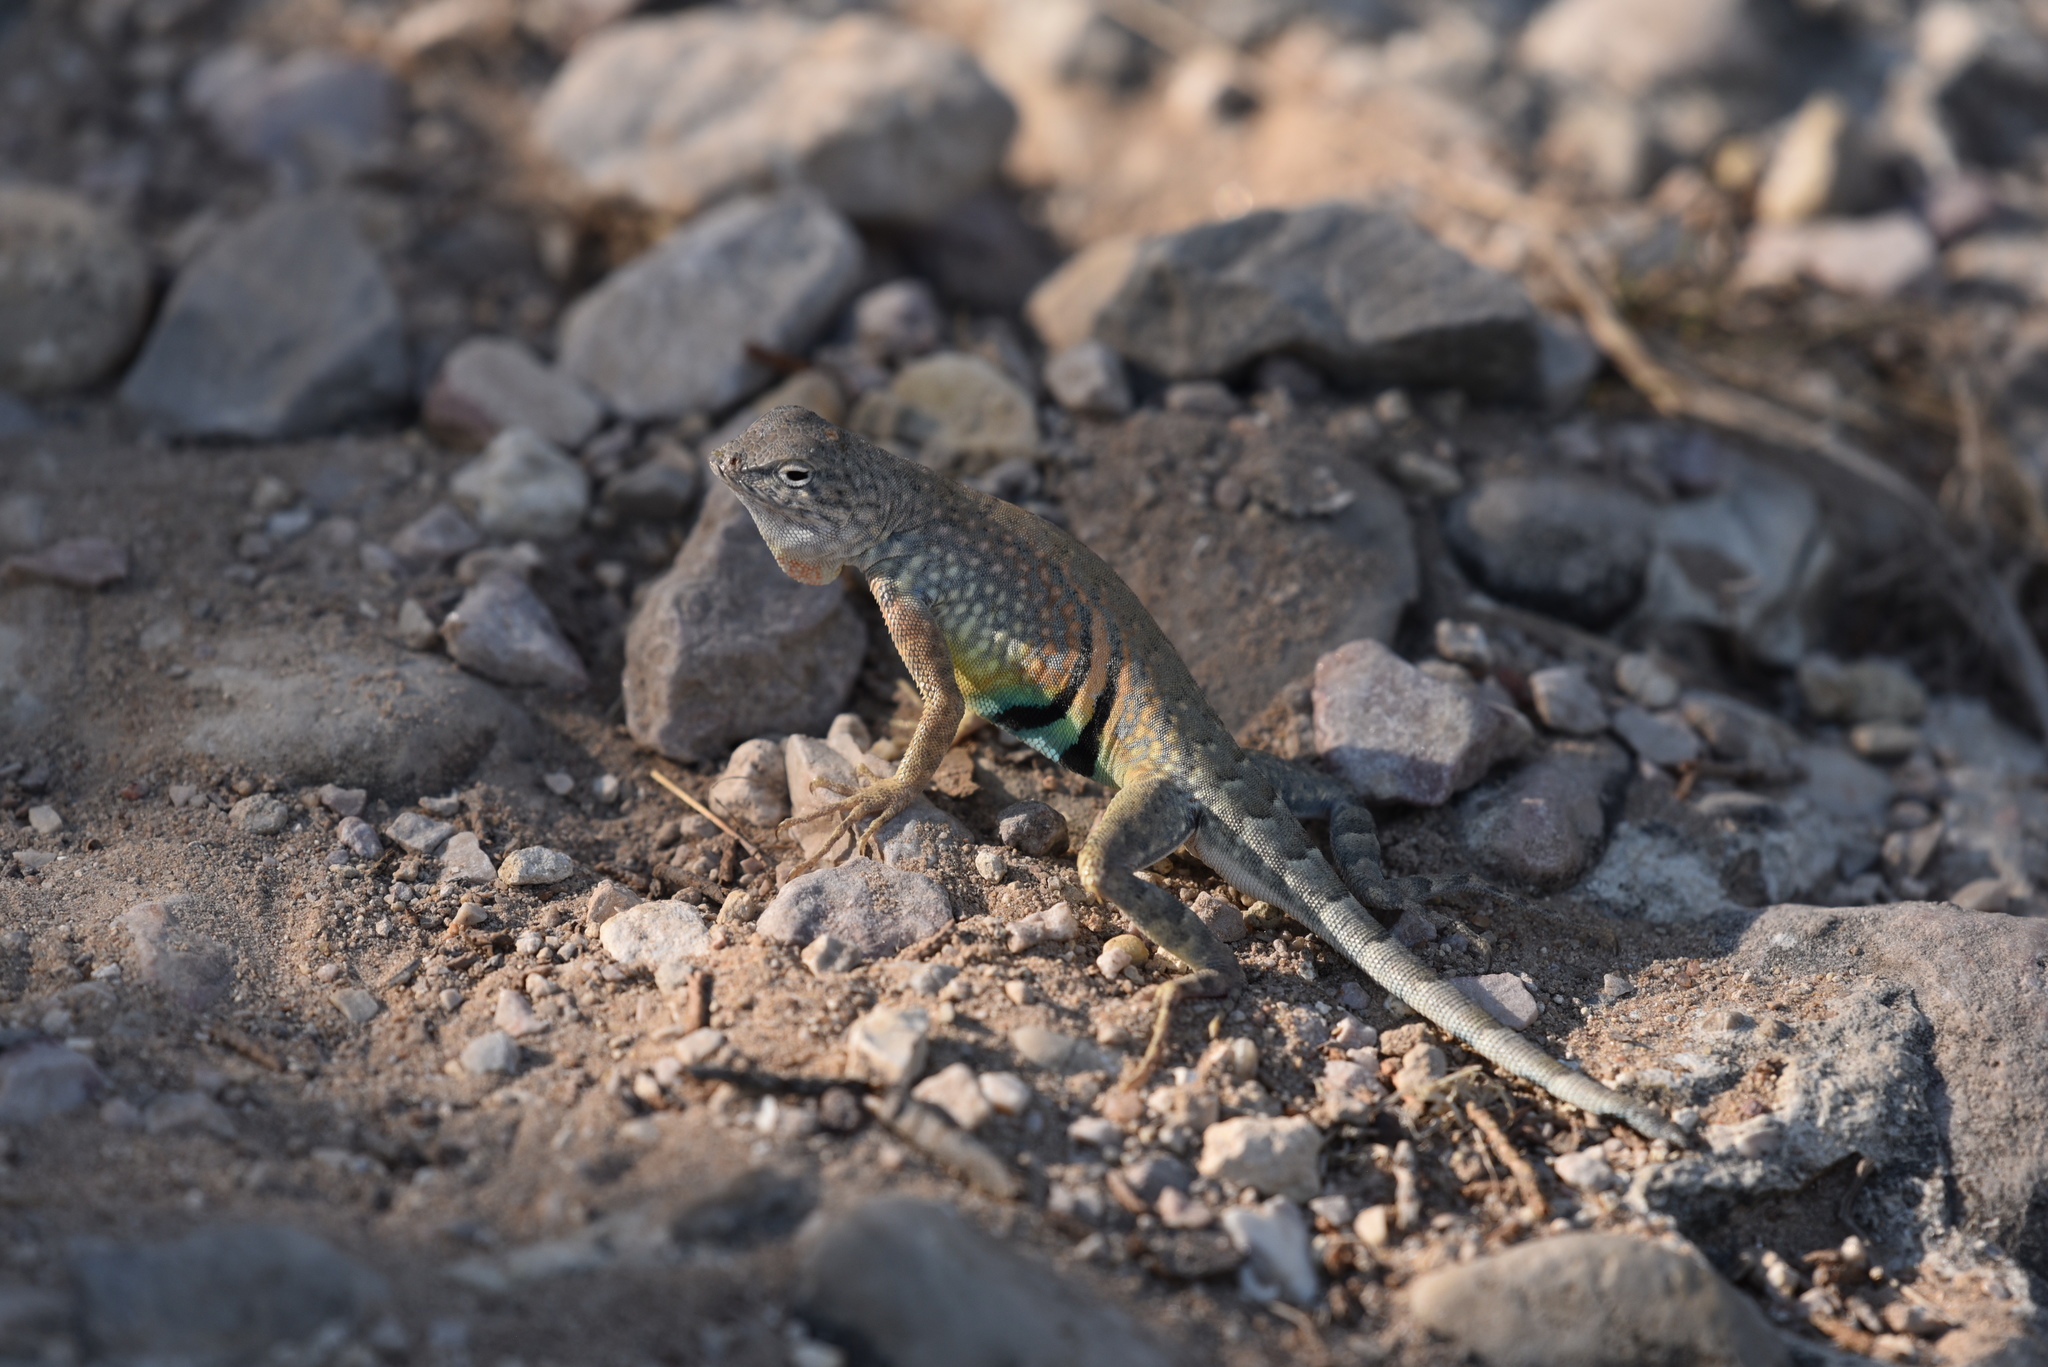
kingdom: Animalia
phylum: Chordata
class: Squamata
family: Phrynosomatidae
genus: Cophosaurus
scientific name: Cophosaurus texanus
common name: Greater earless lizard
